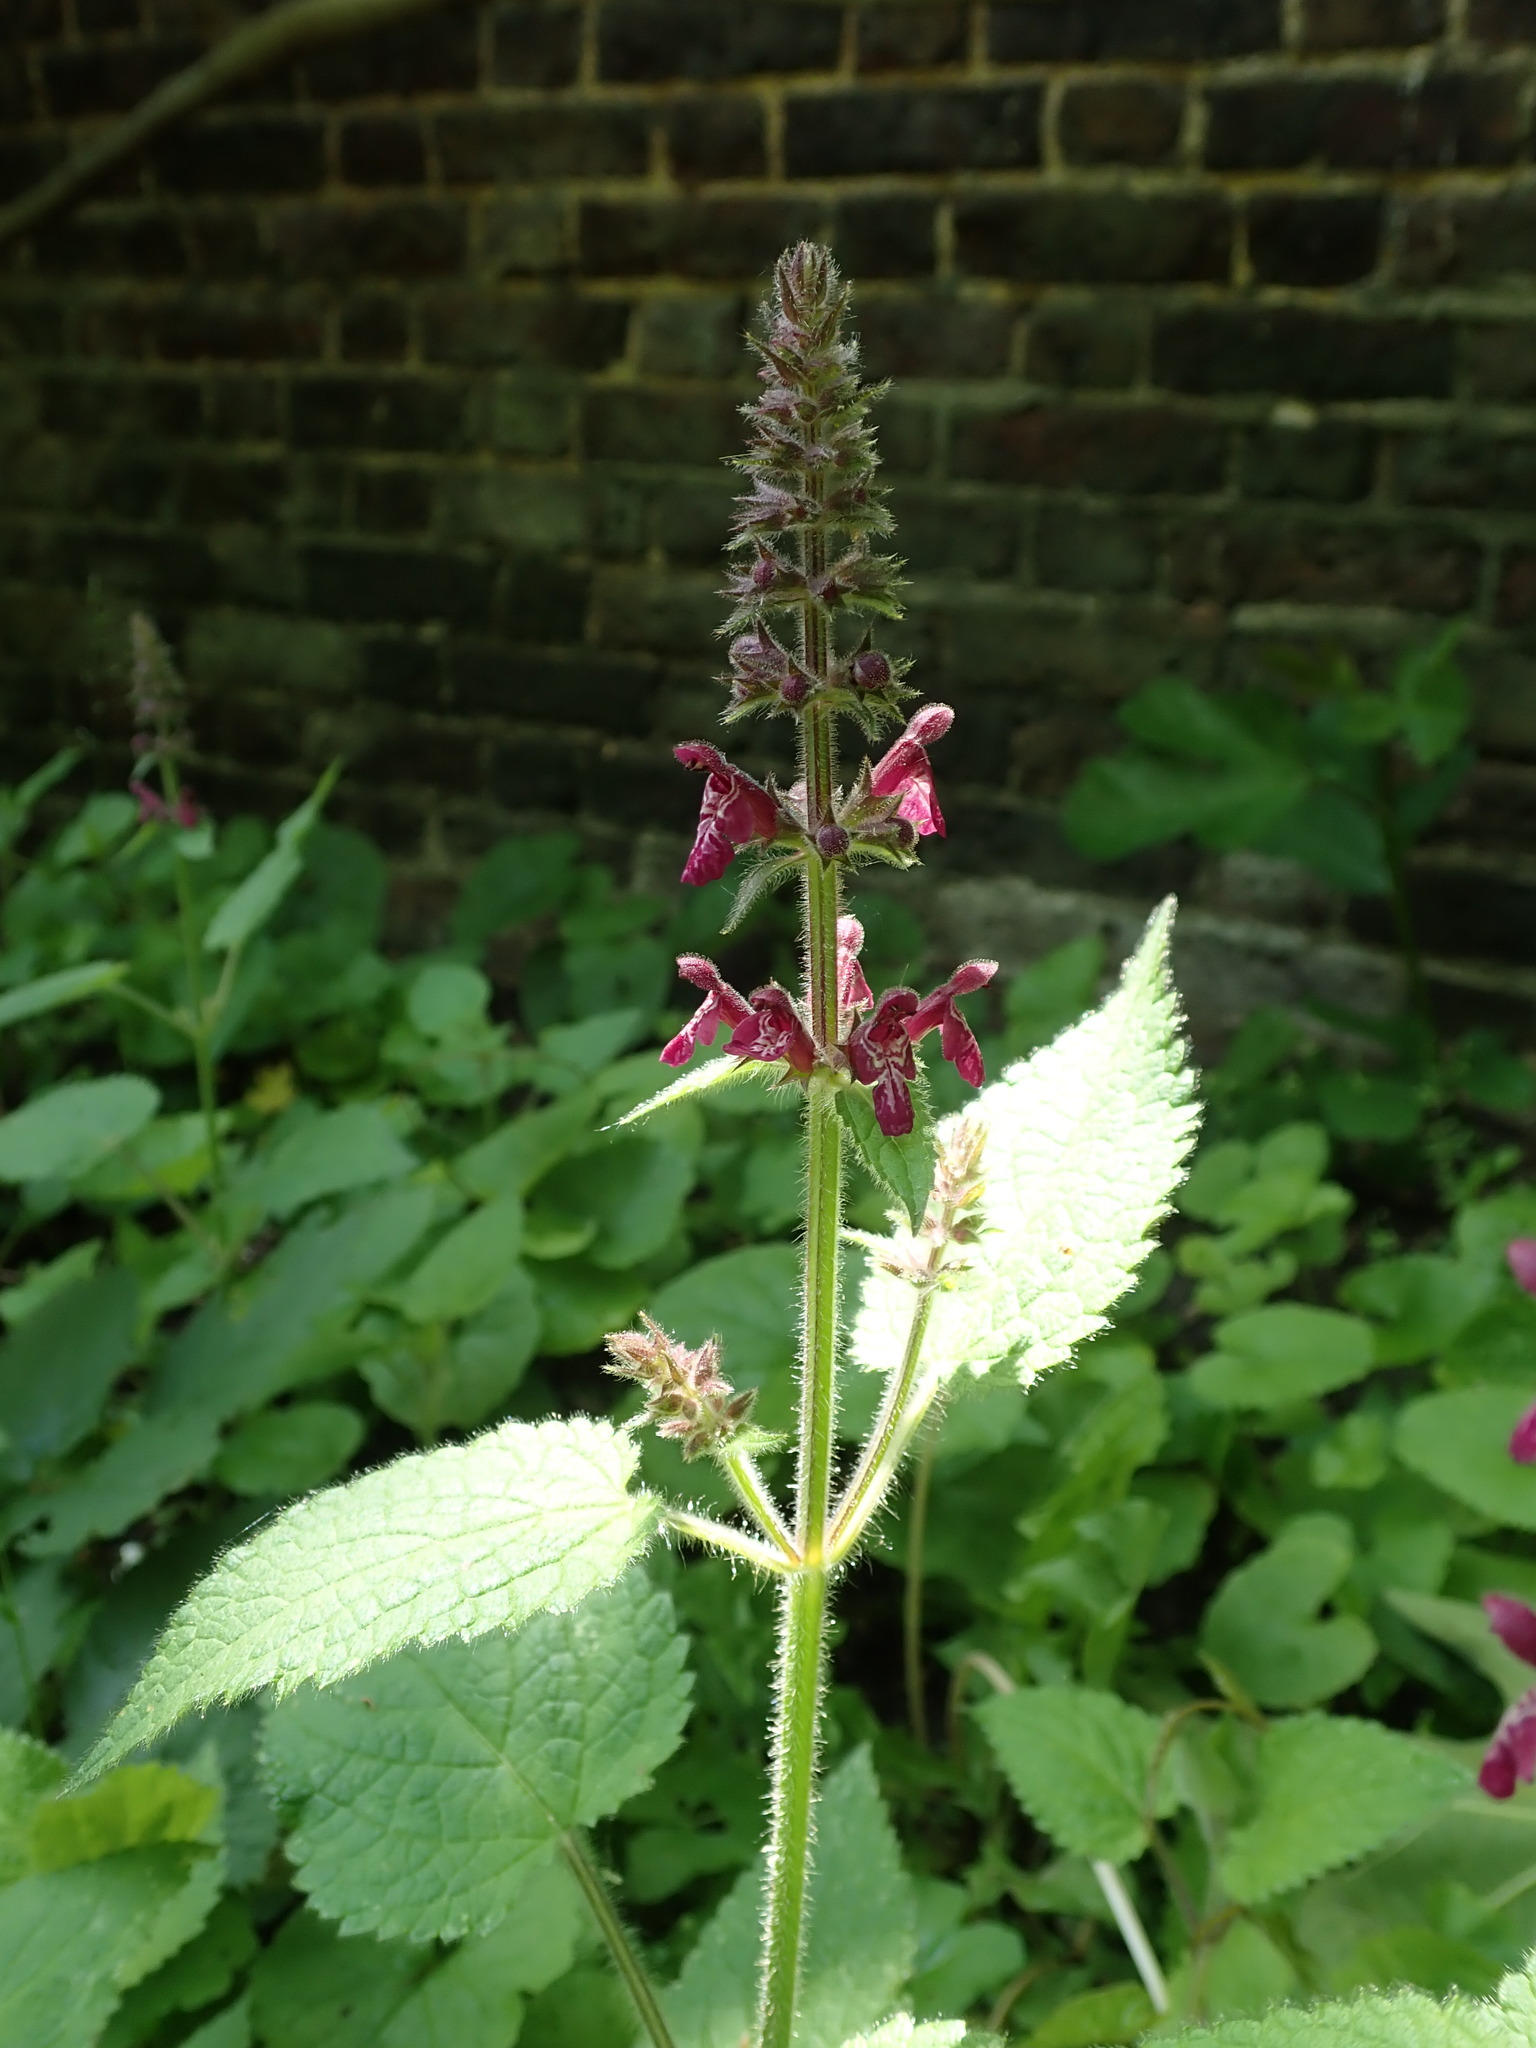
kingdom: Plantae
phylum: Tracheophyta
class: Magnoliopsida
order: Lamiales
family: Lamiaceae
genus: Stachys
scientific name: Stachys sylvatica
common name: Hedge woundwort
